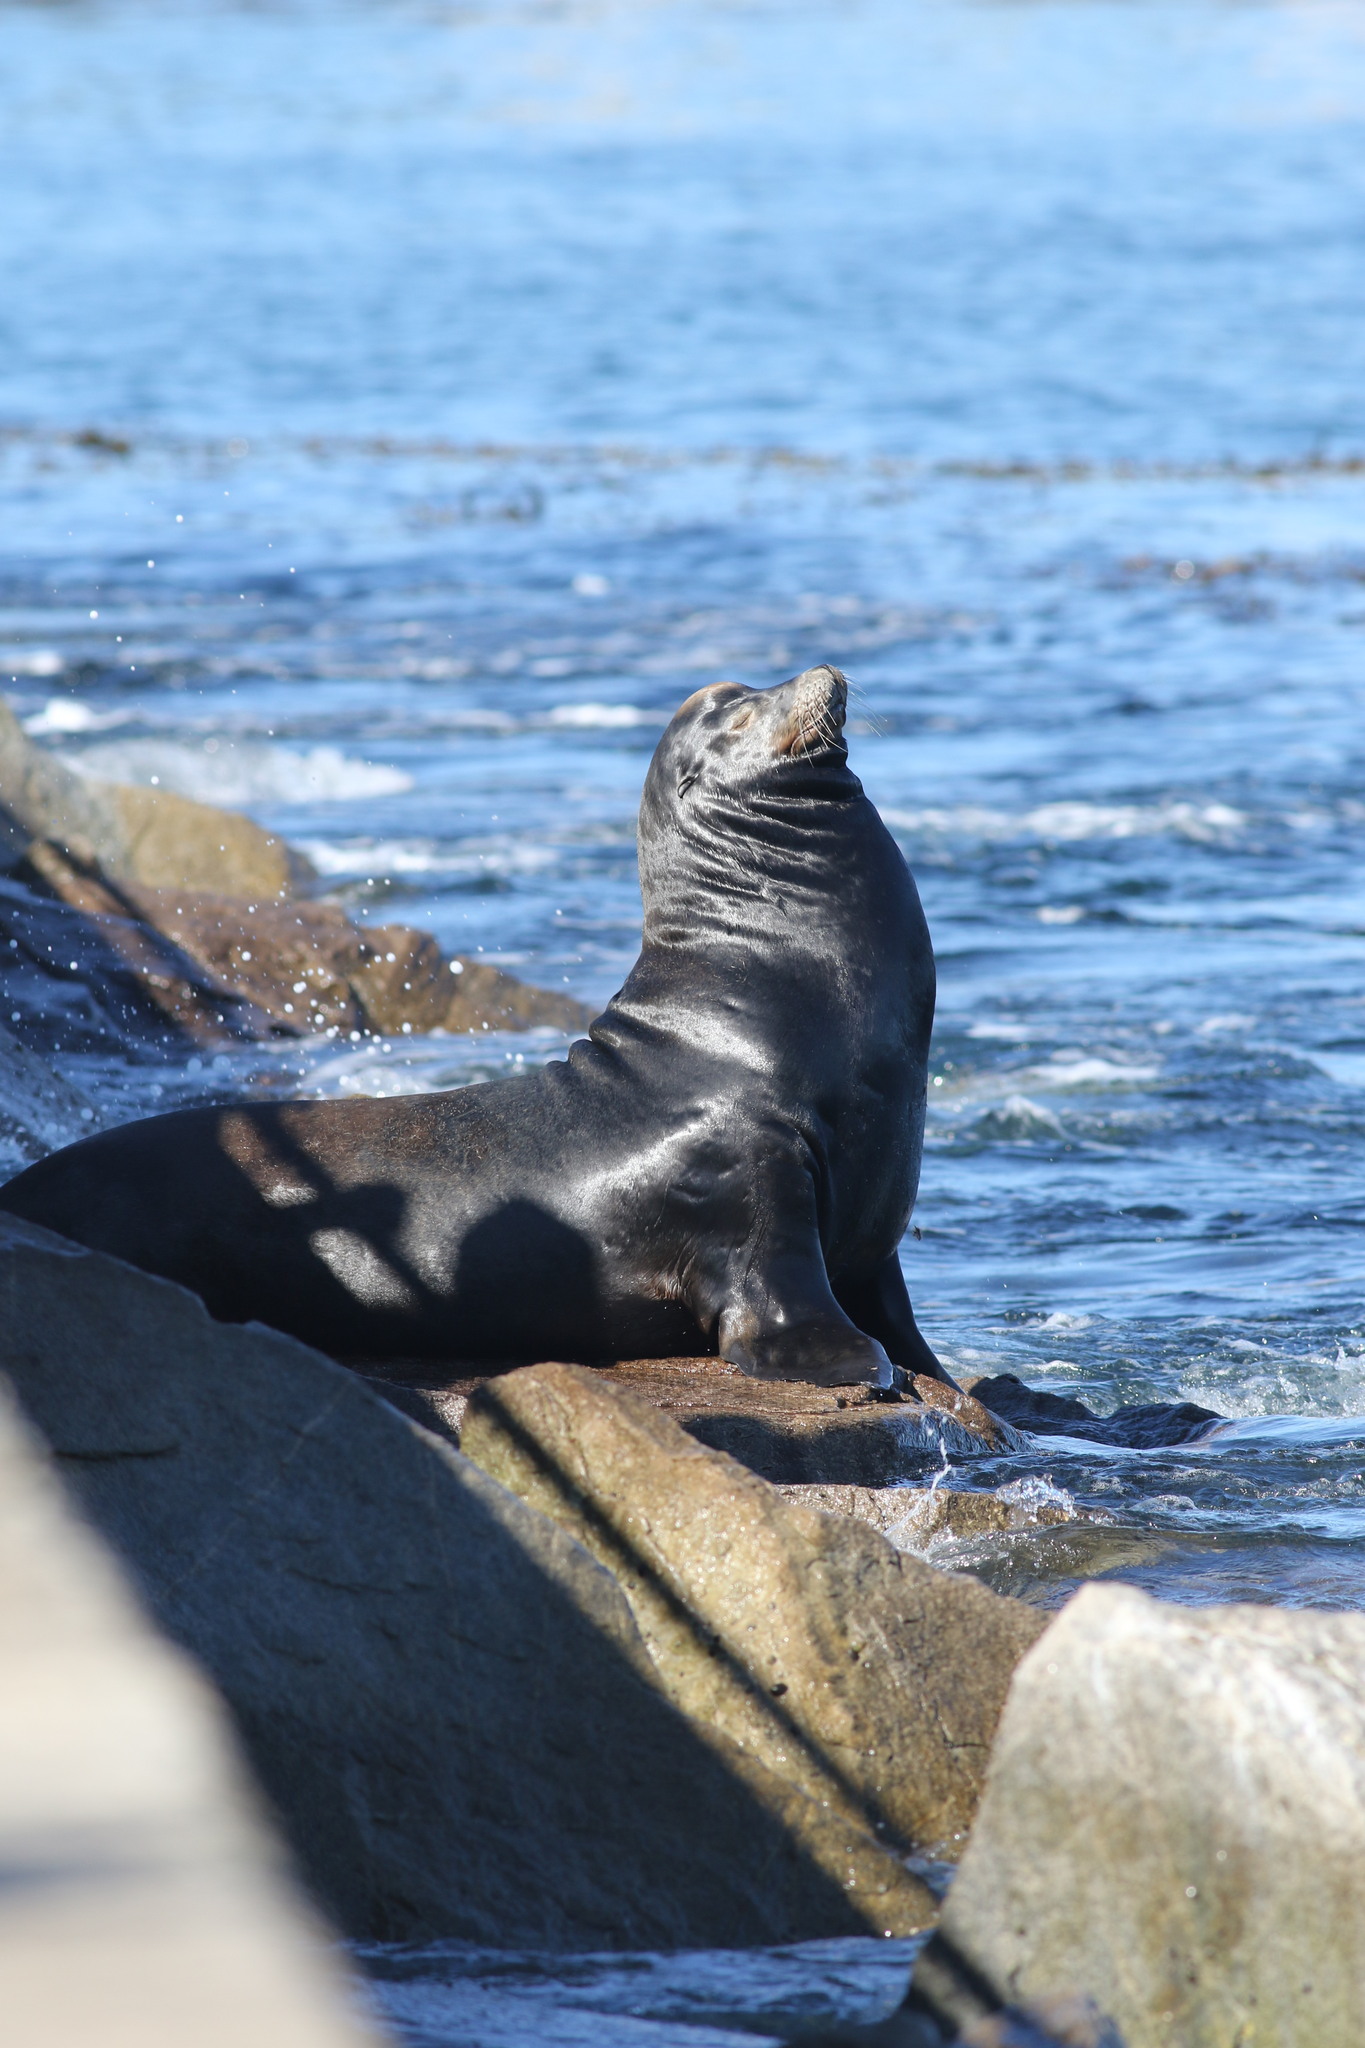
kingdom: Animalia
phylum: Chordata
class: Mammalia
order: Carnivora
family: Otariidae
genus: Zalophus
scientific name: Zalophus californianus
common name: California sea lion
